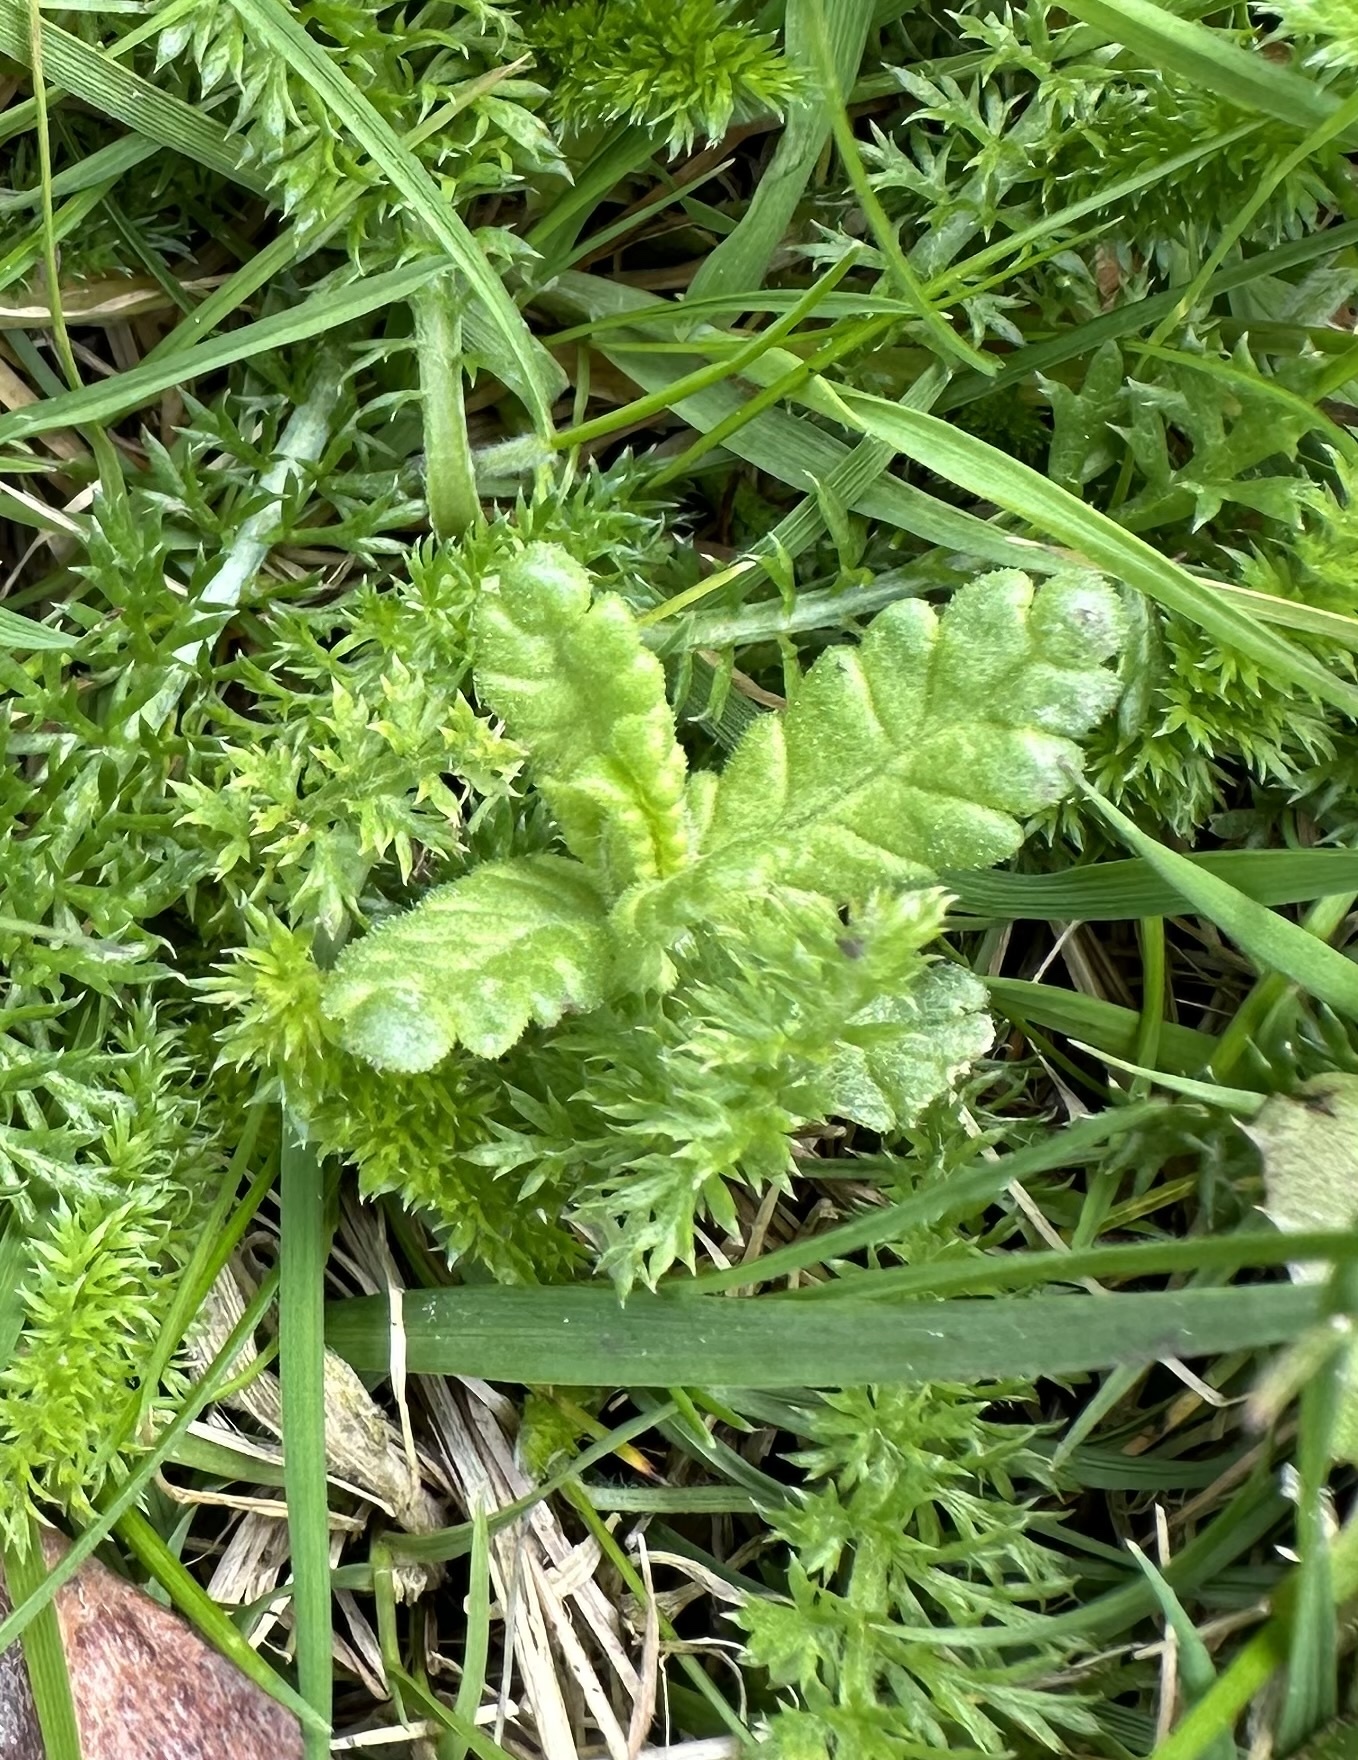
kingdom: Plantae
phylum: Tracheophyta
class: Magnoliopsida
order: Lamiales
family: Orobanchaceae
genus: Rhinanthus
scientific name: Rhinanthus minor
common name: Yellow-rattle
